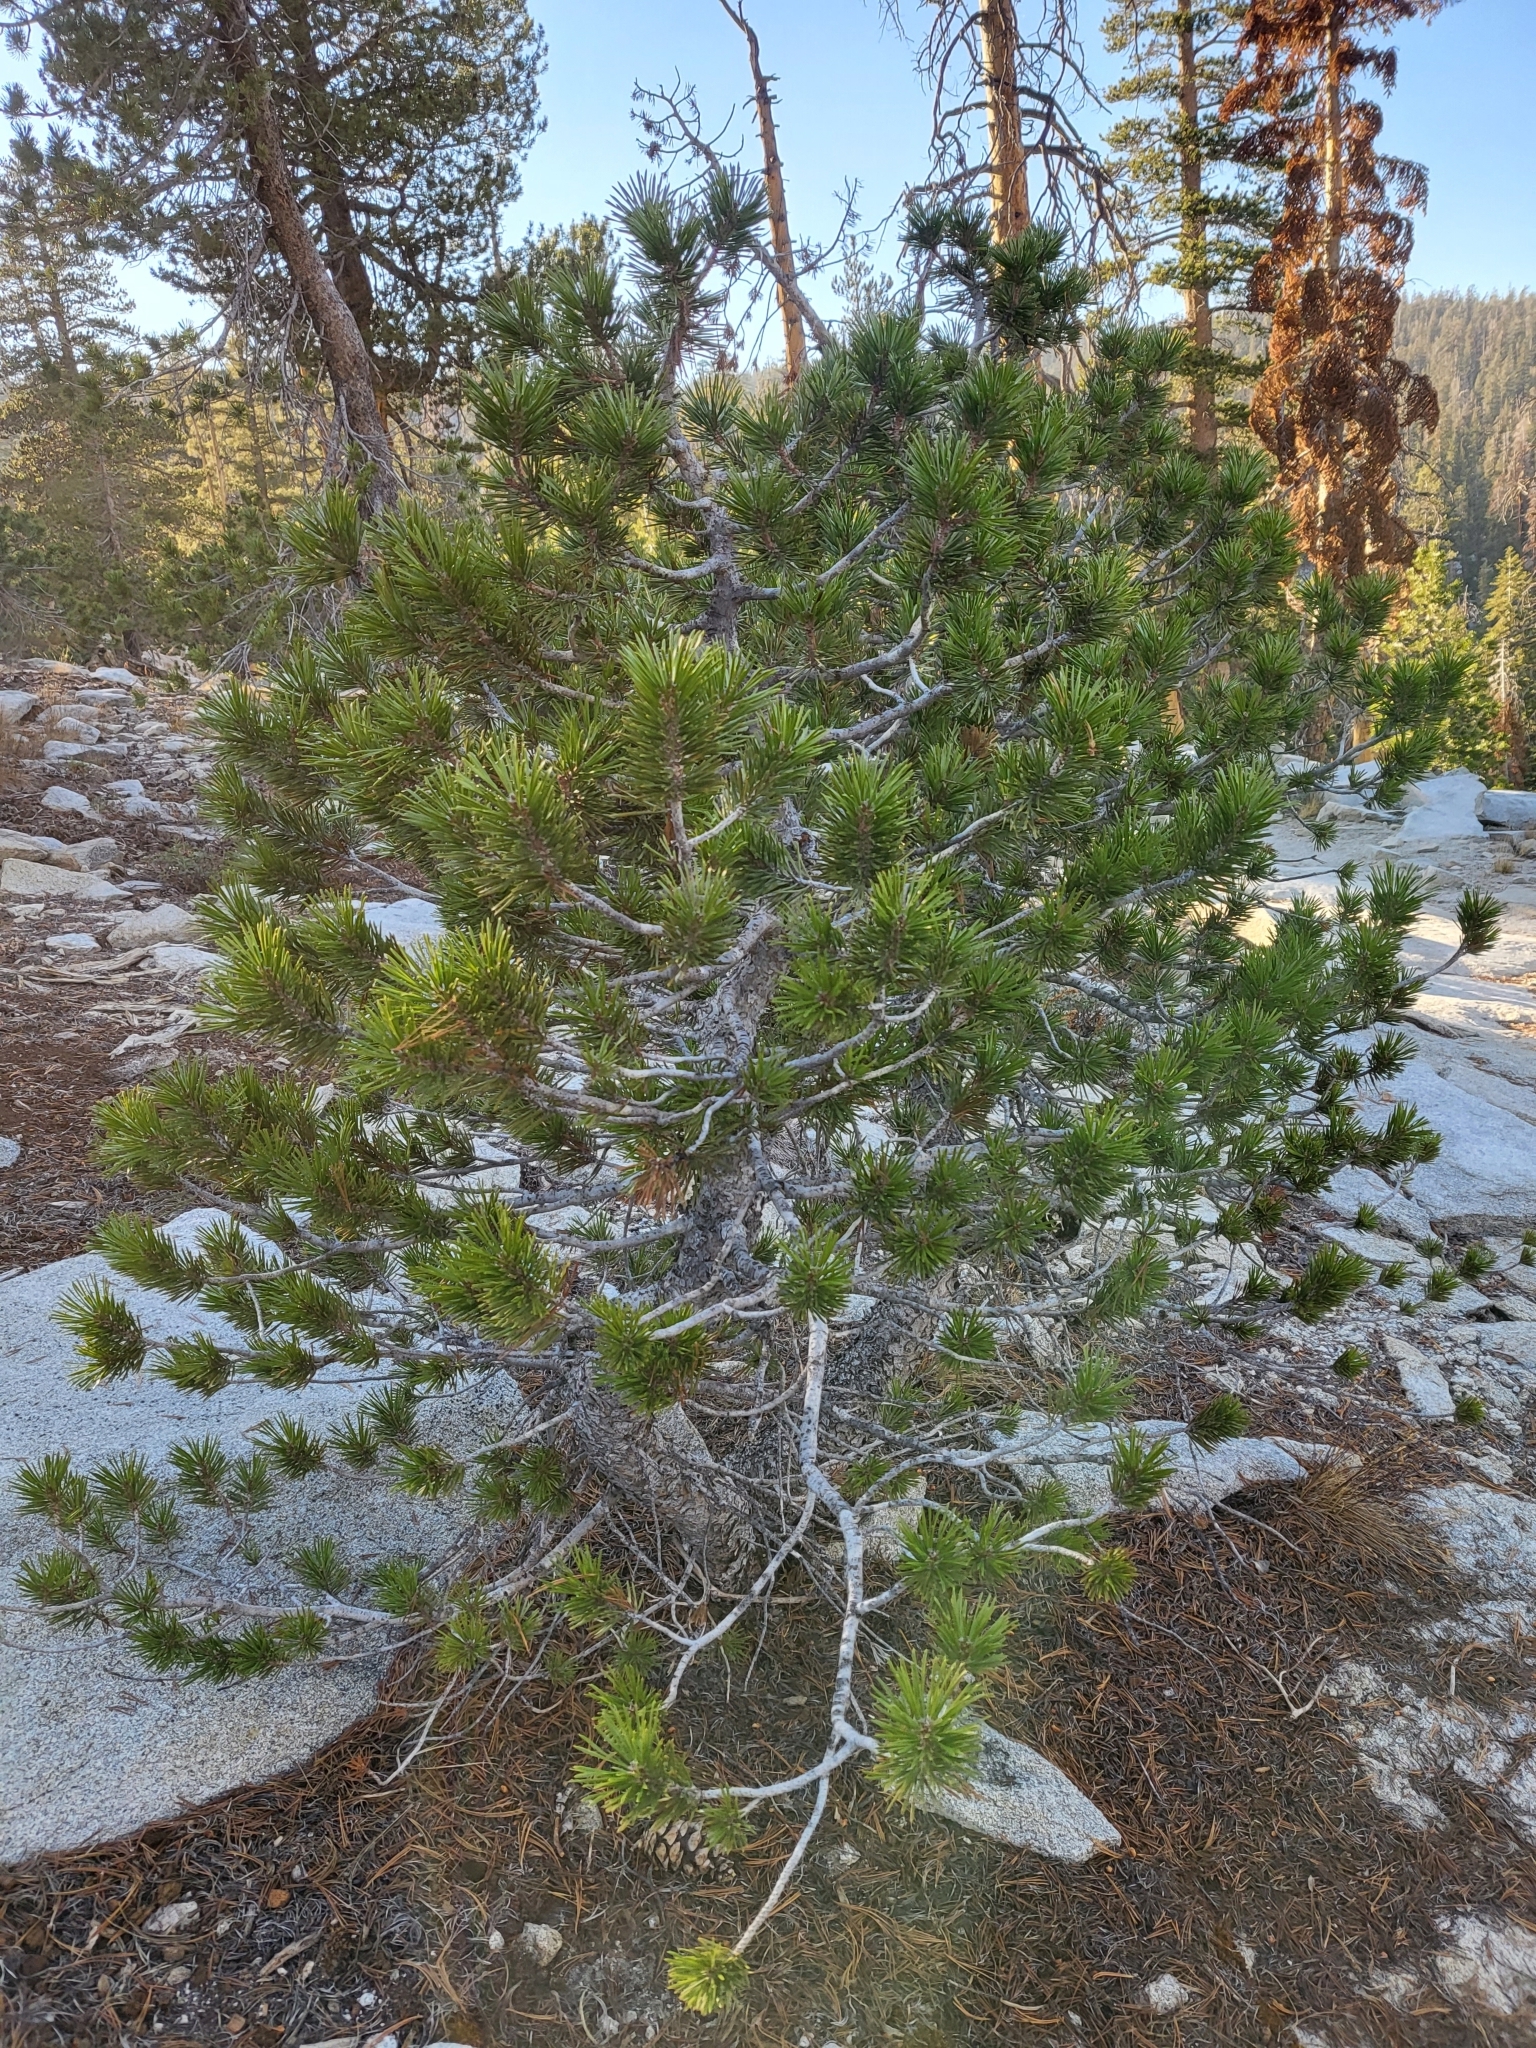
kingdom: Plantae
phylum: Tracheophyta
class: Pinopsida
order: Pinales
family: Pinaceae
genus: Pinus
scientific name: Pinus contorta
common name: Lodgepole pine
